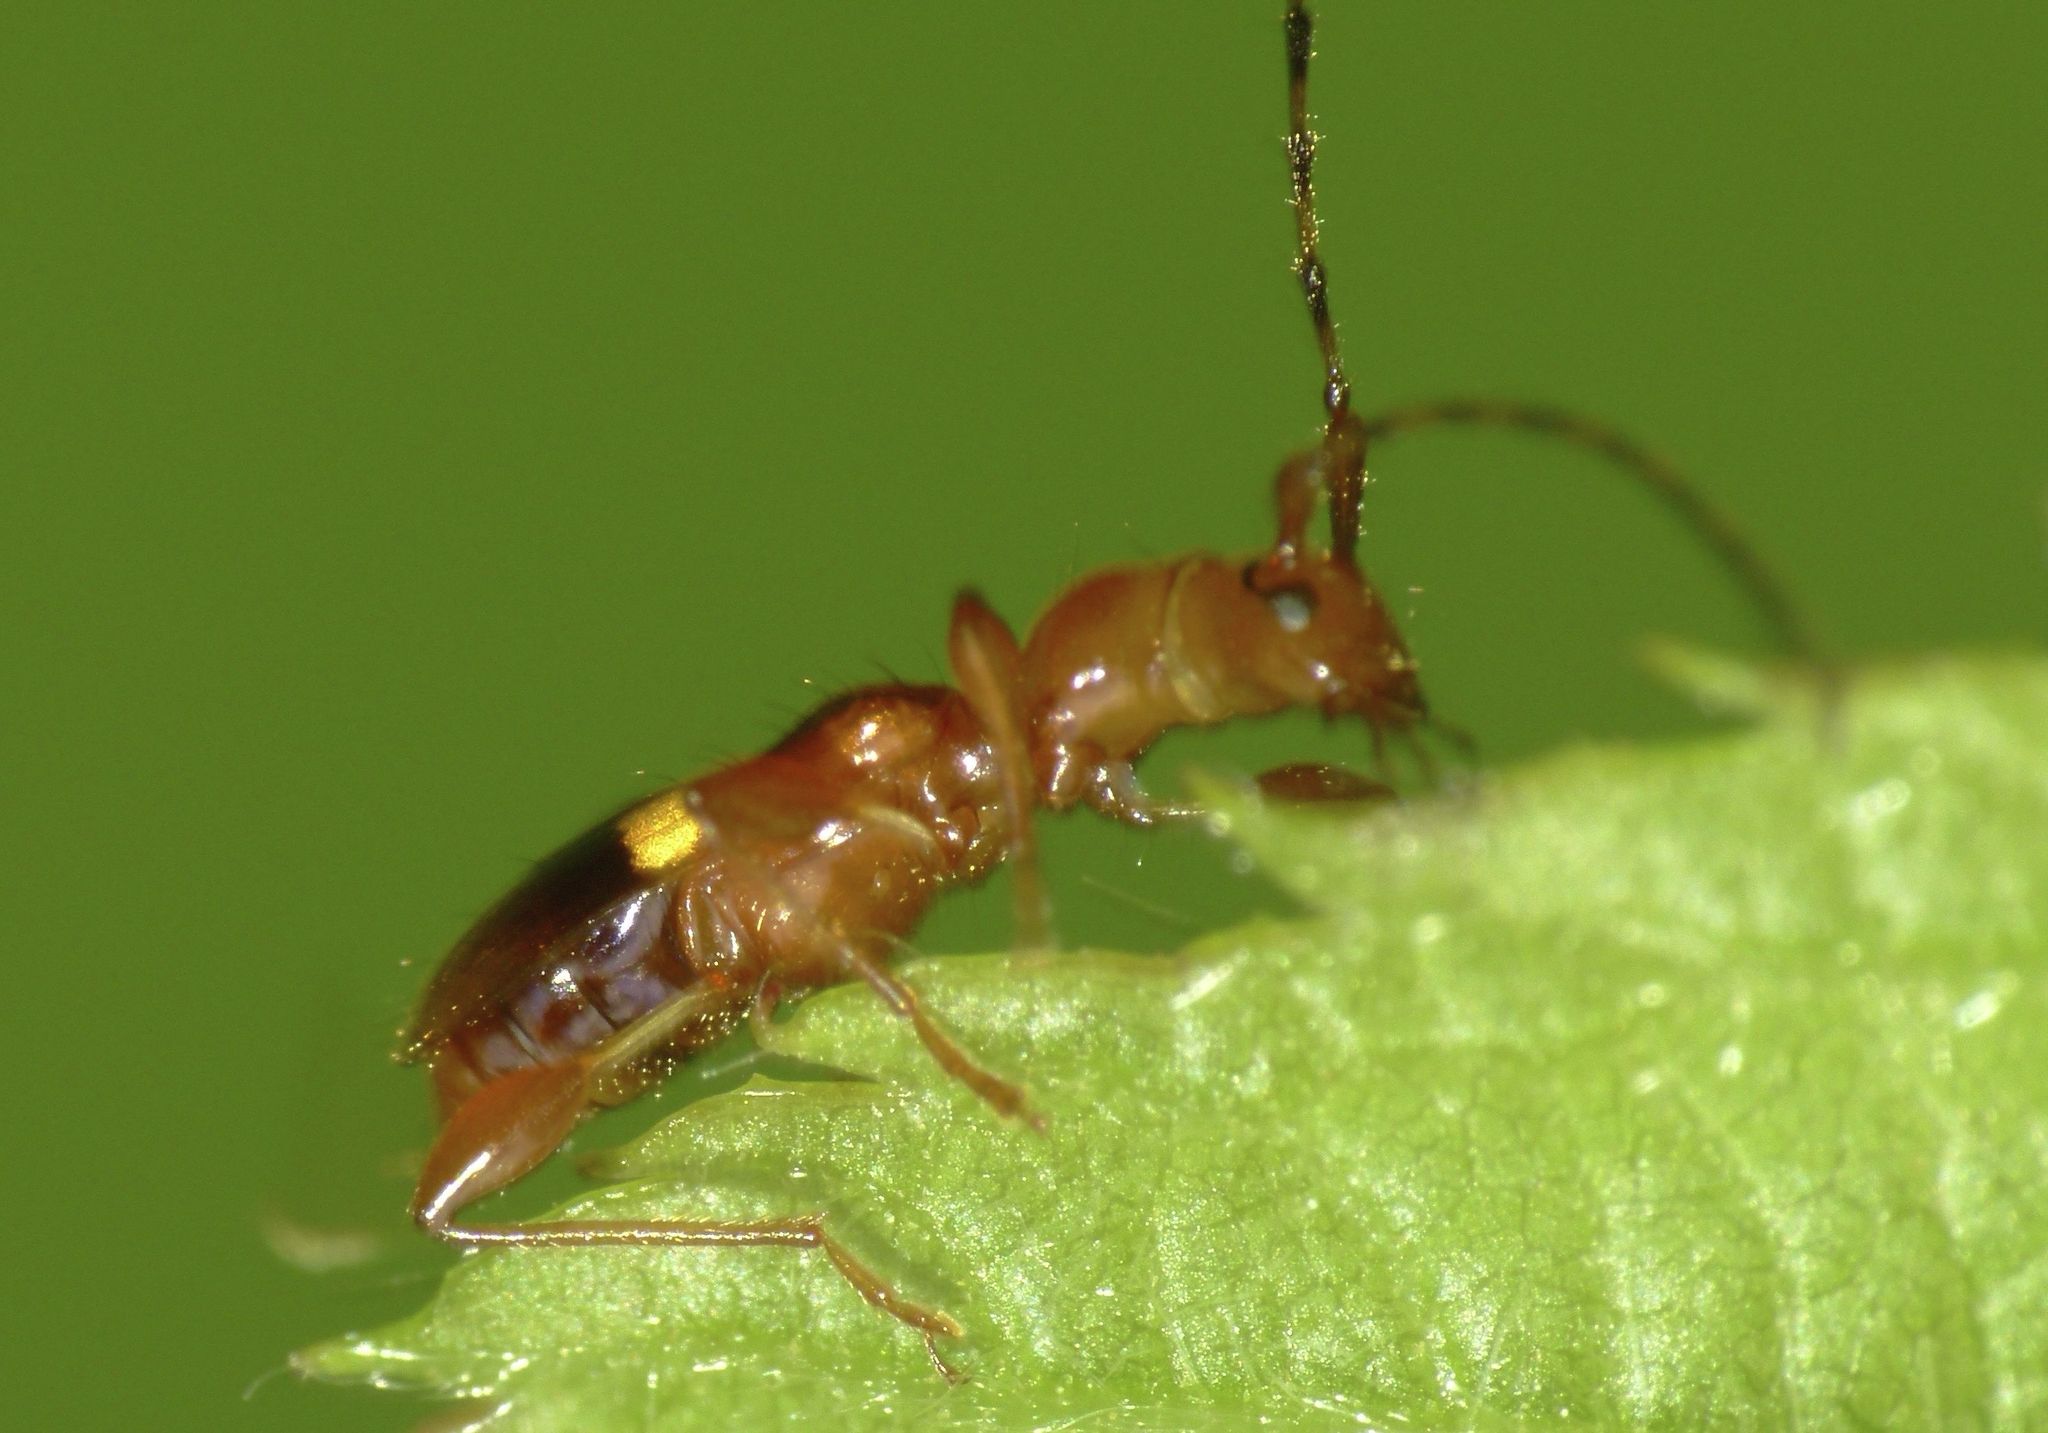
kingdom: Animalia
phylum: Arthropoda
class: Insecta
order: Coleoptera
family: Cerambycidae
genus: Zorion
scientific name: Zorion australe
